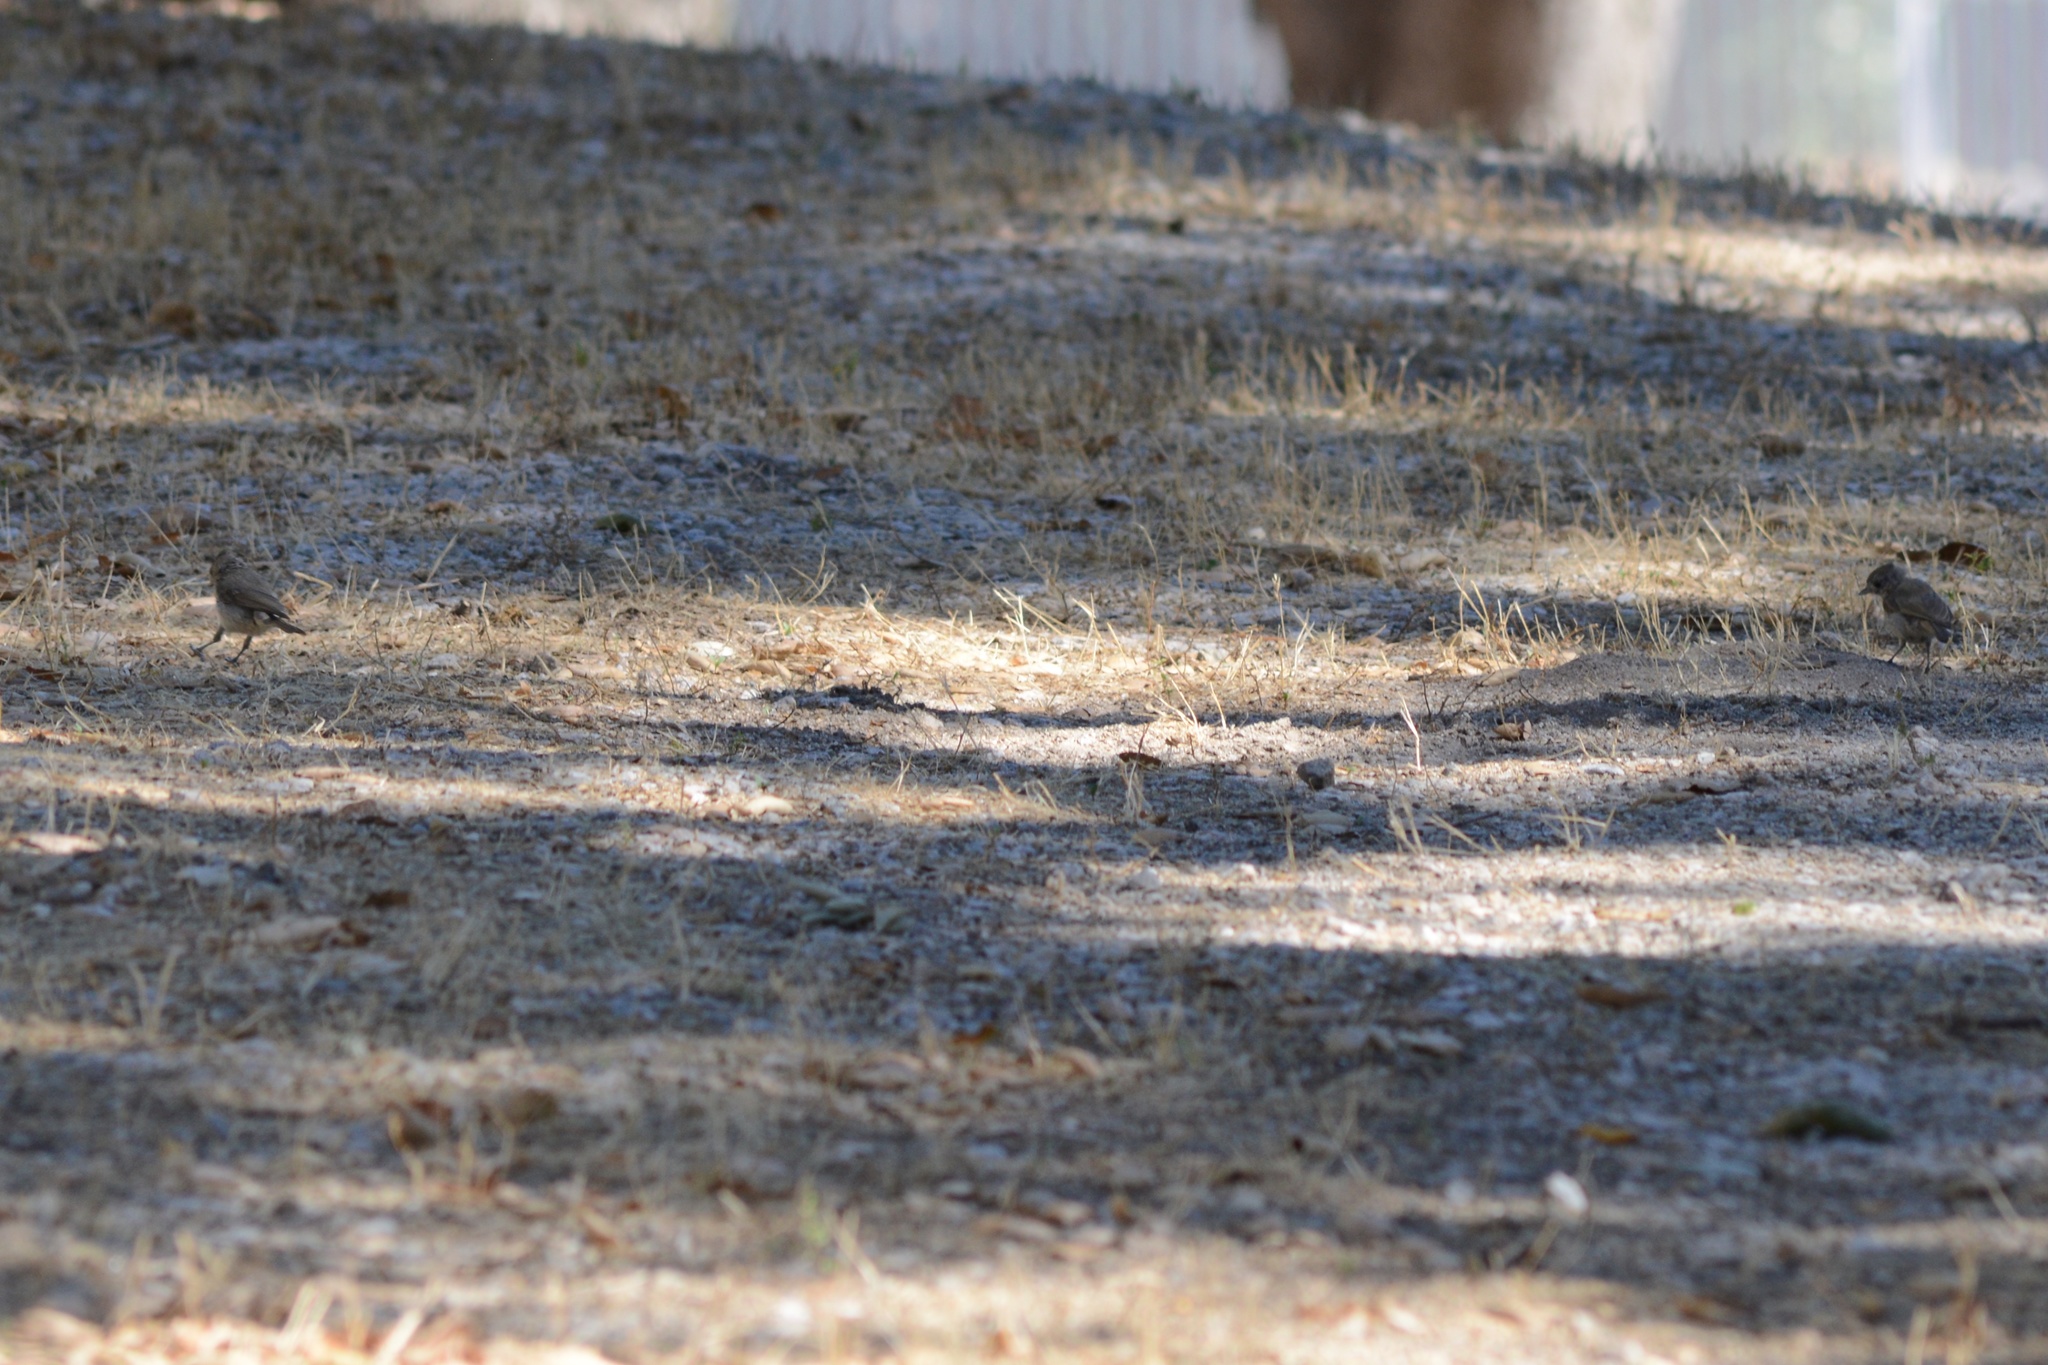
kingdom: Animalia
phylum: Chordata
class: Aves
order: Passeriformes
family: Paridae
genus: Baeolophus
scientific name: Baeolophus inornatus
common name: Oak titmouse
